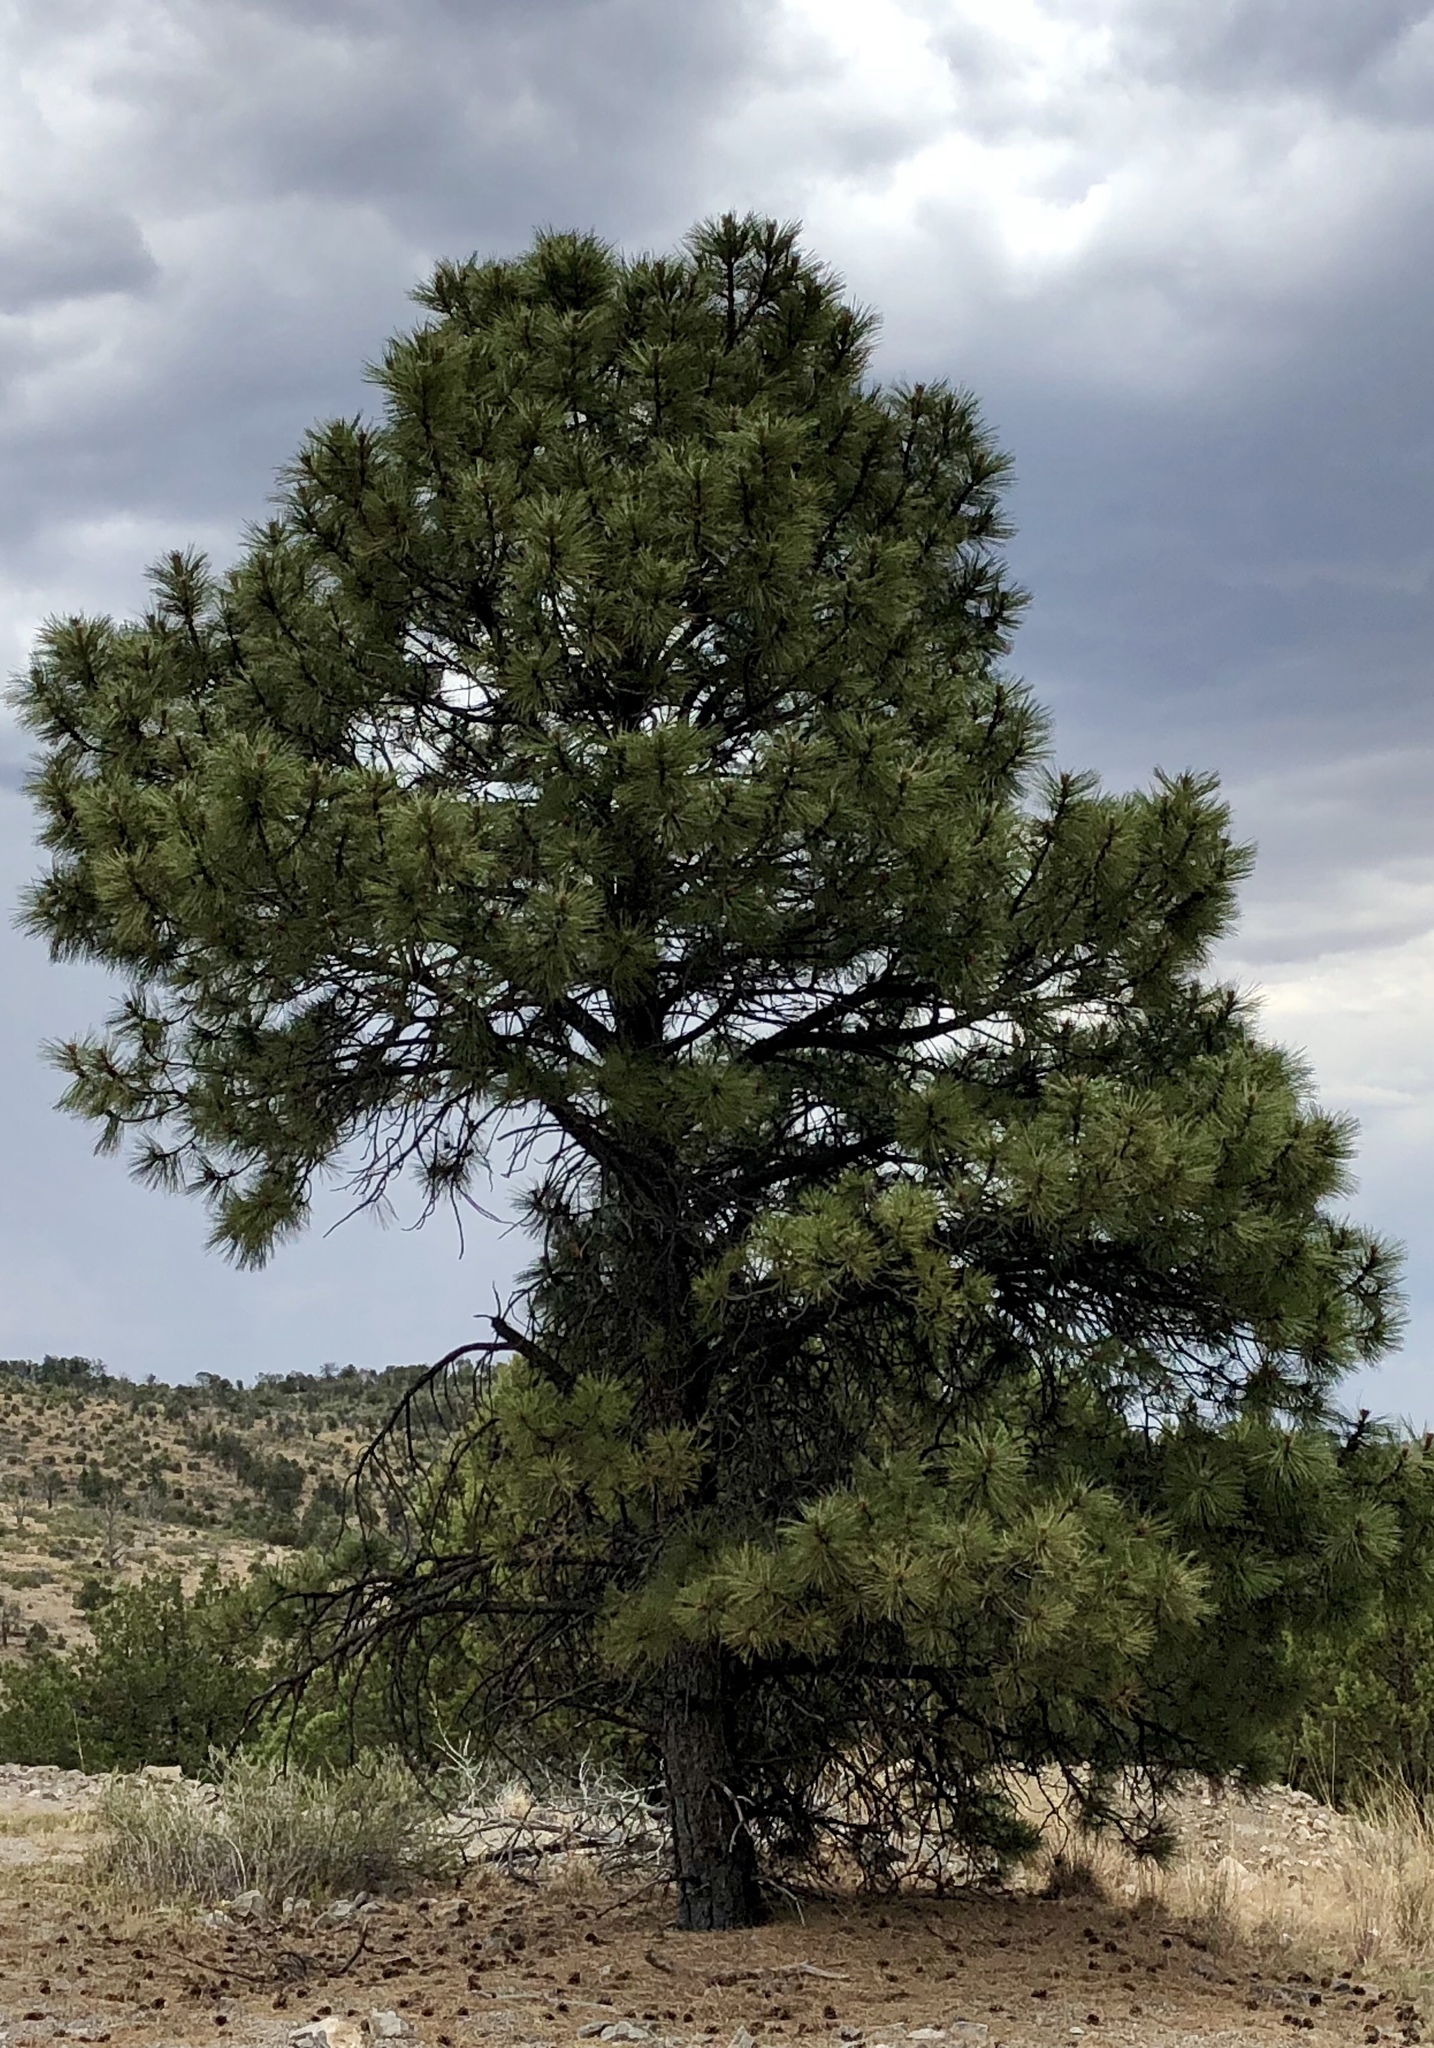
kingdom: Plantae
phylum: Tracheophyta
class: Pinopsida
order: Pinales
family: Pinaceae
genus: Pinus
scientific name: Pinus ponderosa
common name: Western yellow-pine
